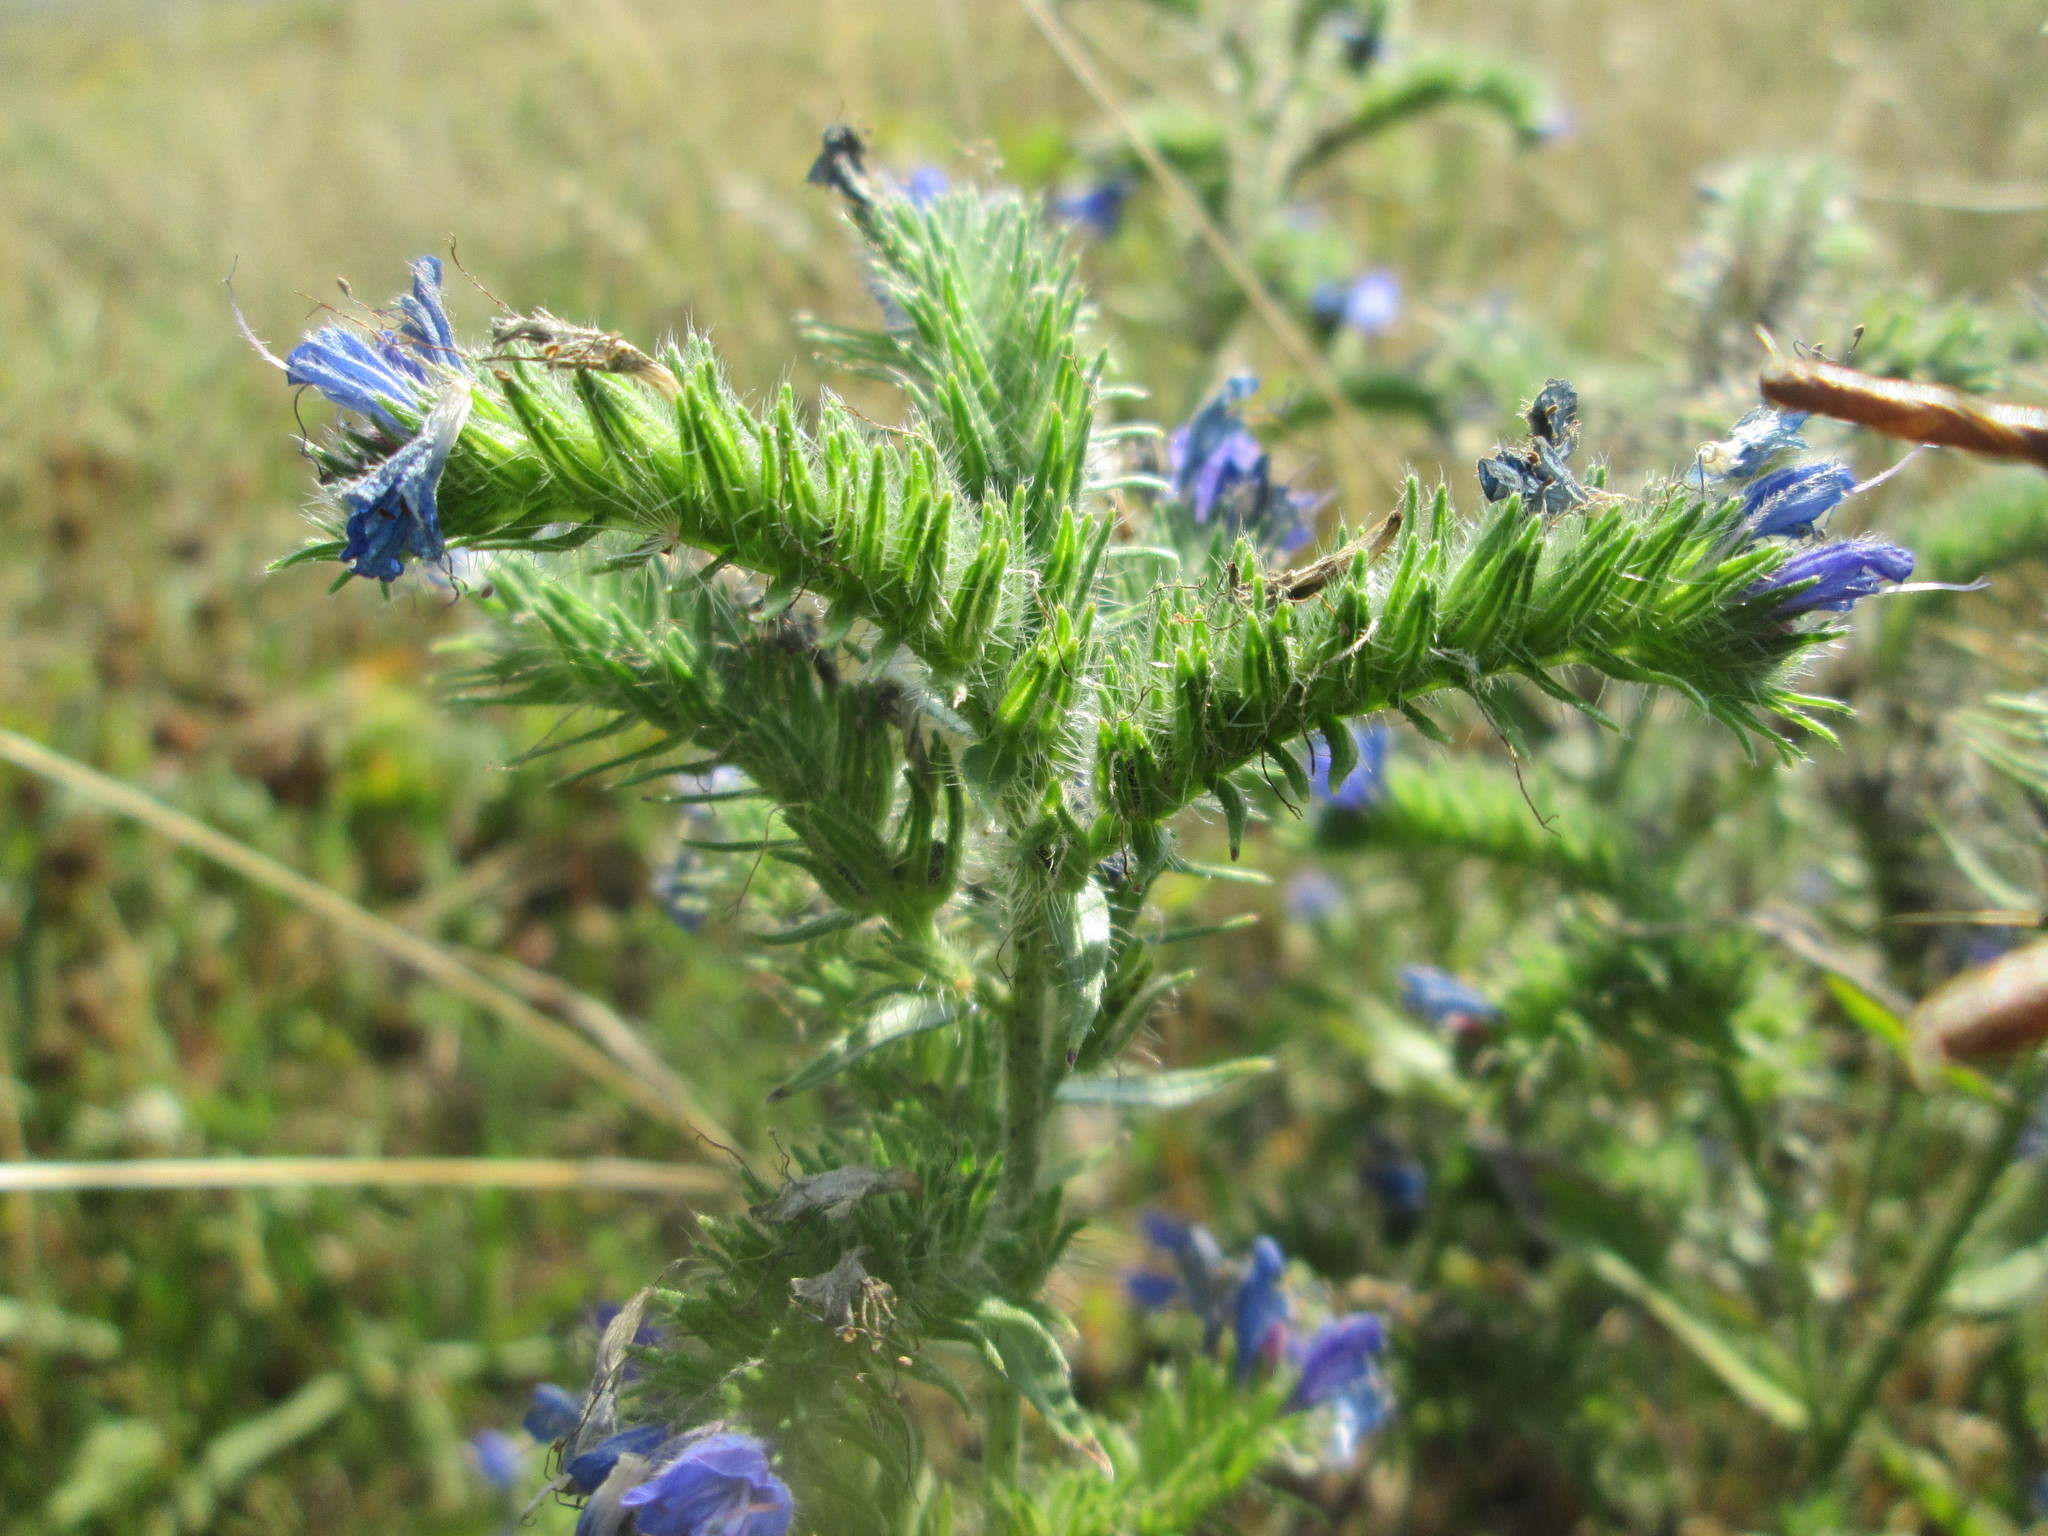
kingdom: Plantae
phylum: Tracheophyta
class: Magnoliopsida
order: Boraginales
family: Boraginaceae
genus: Echium
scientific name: Echium vulgare
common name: Common viper's bugloss
